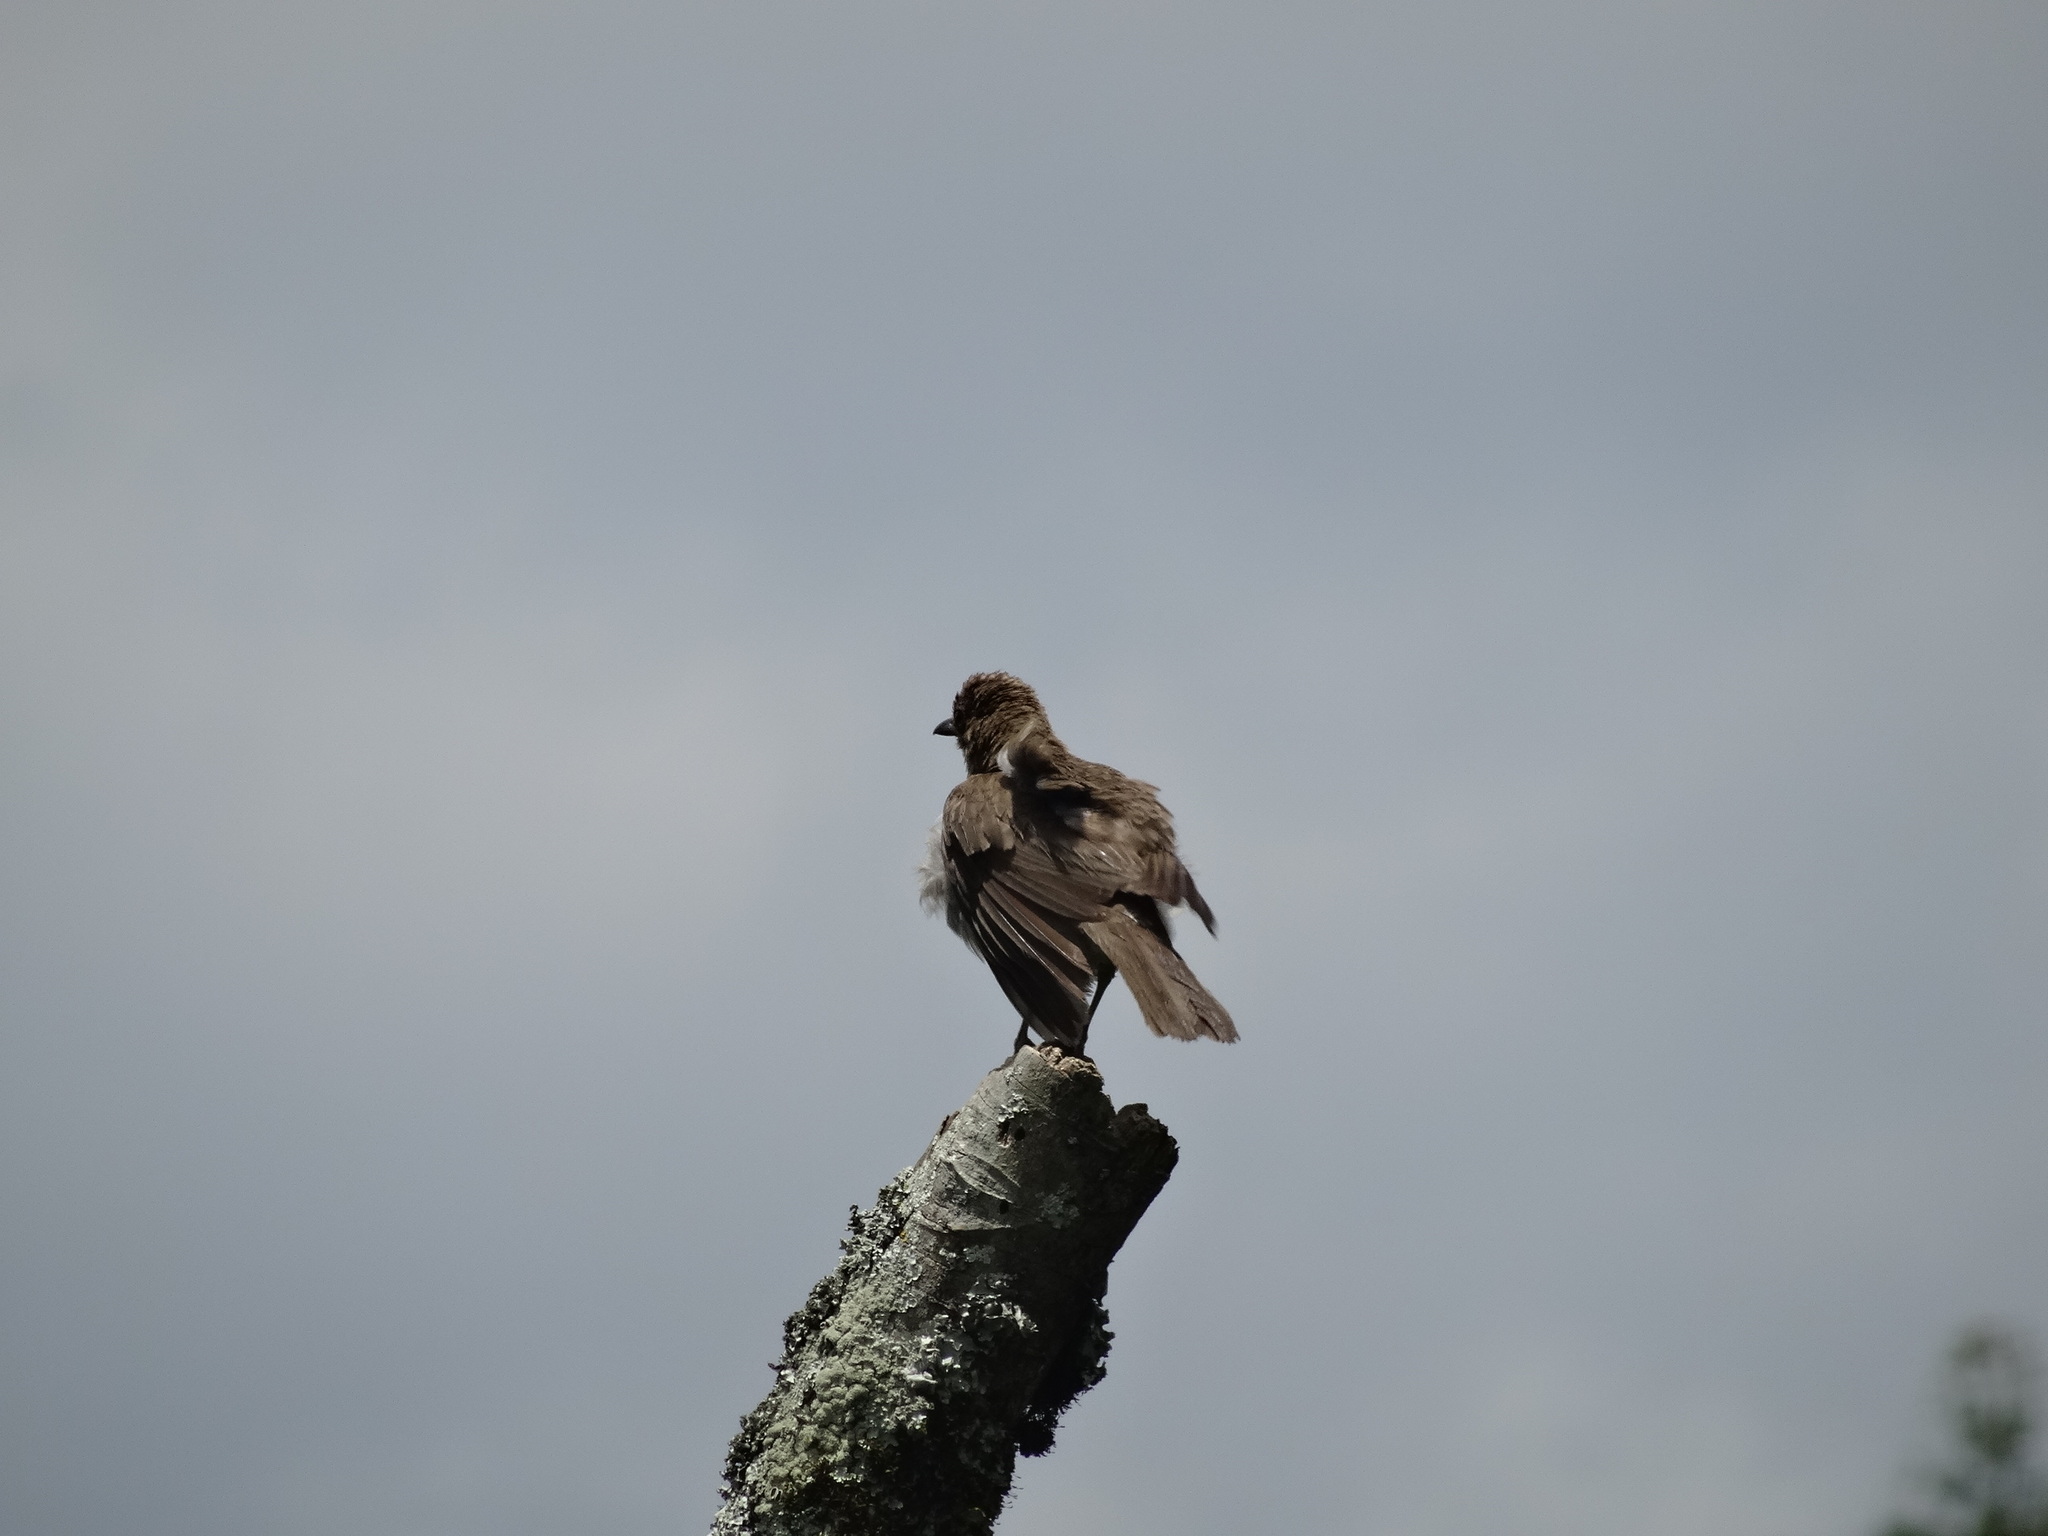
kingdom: Animalia
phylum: Chordata
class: Aves
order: Passeriformes
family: Turdidae
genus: Turdus
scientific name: Turdus ignobilis
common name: Black-billed thrush
